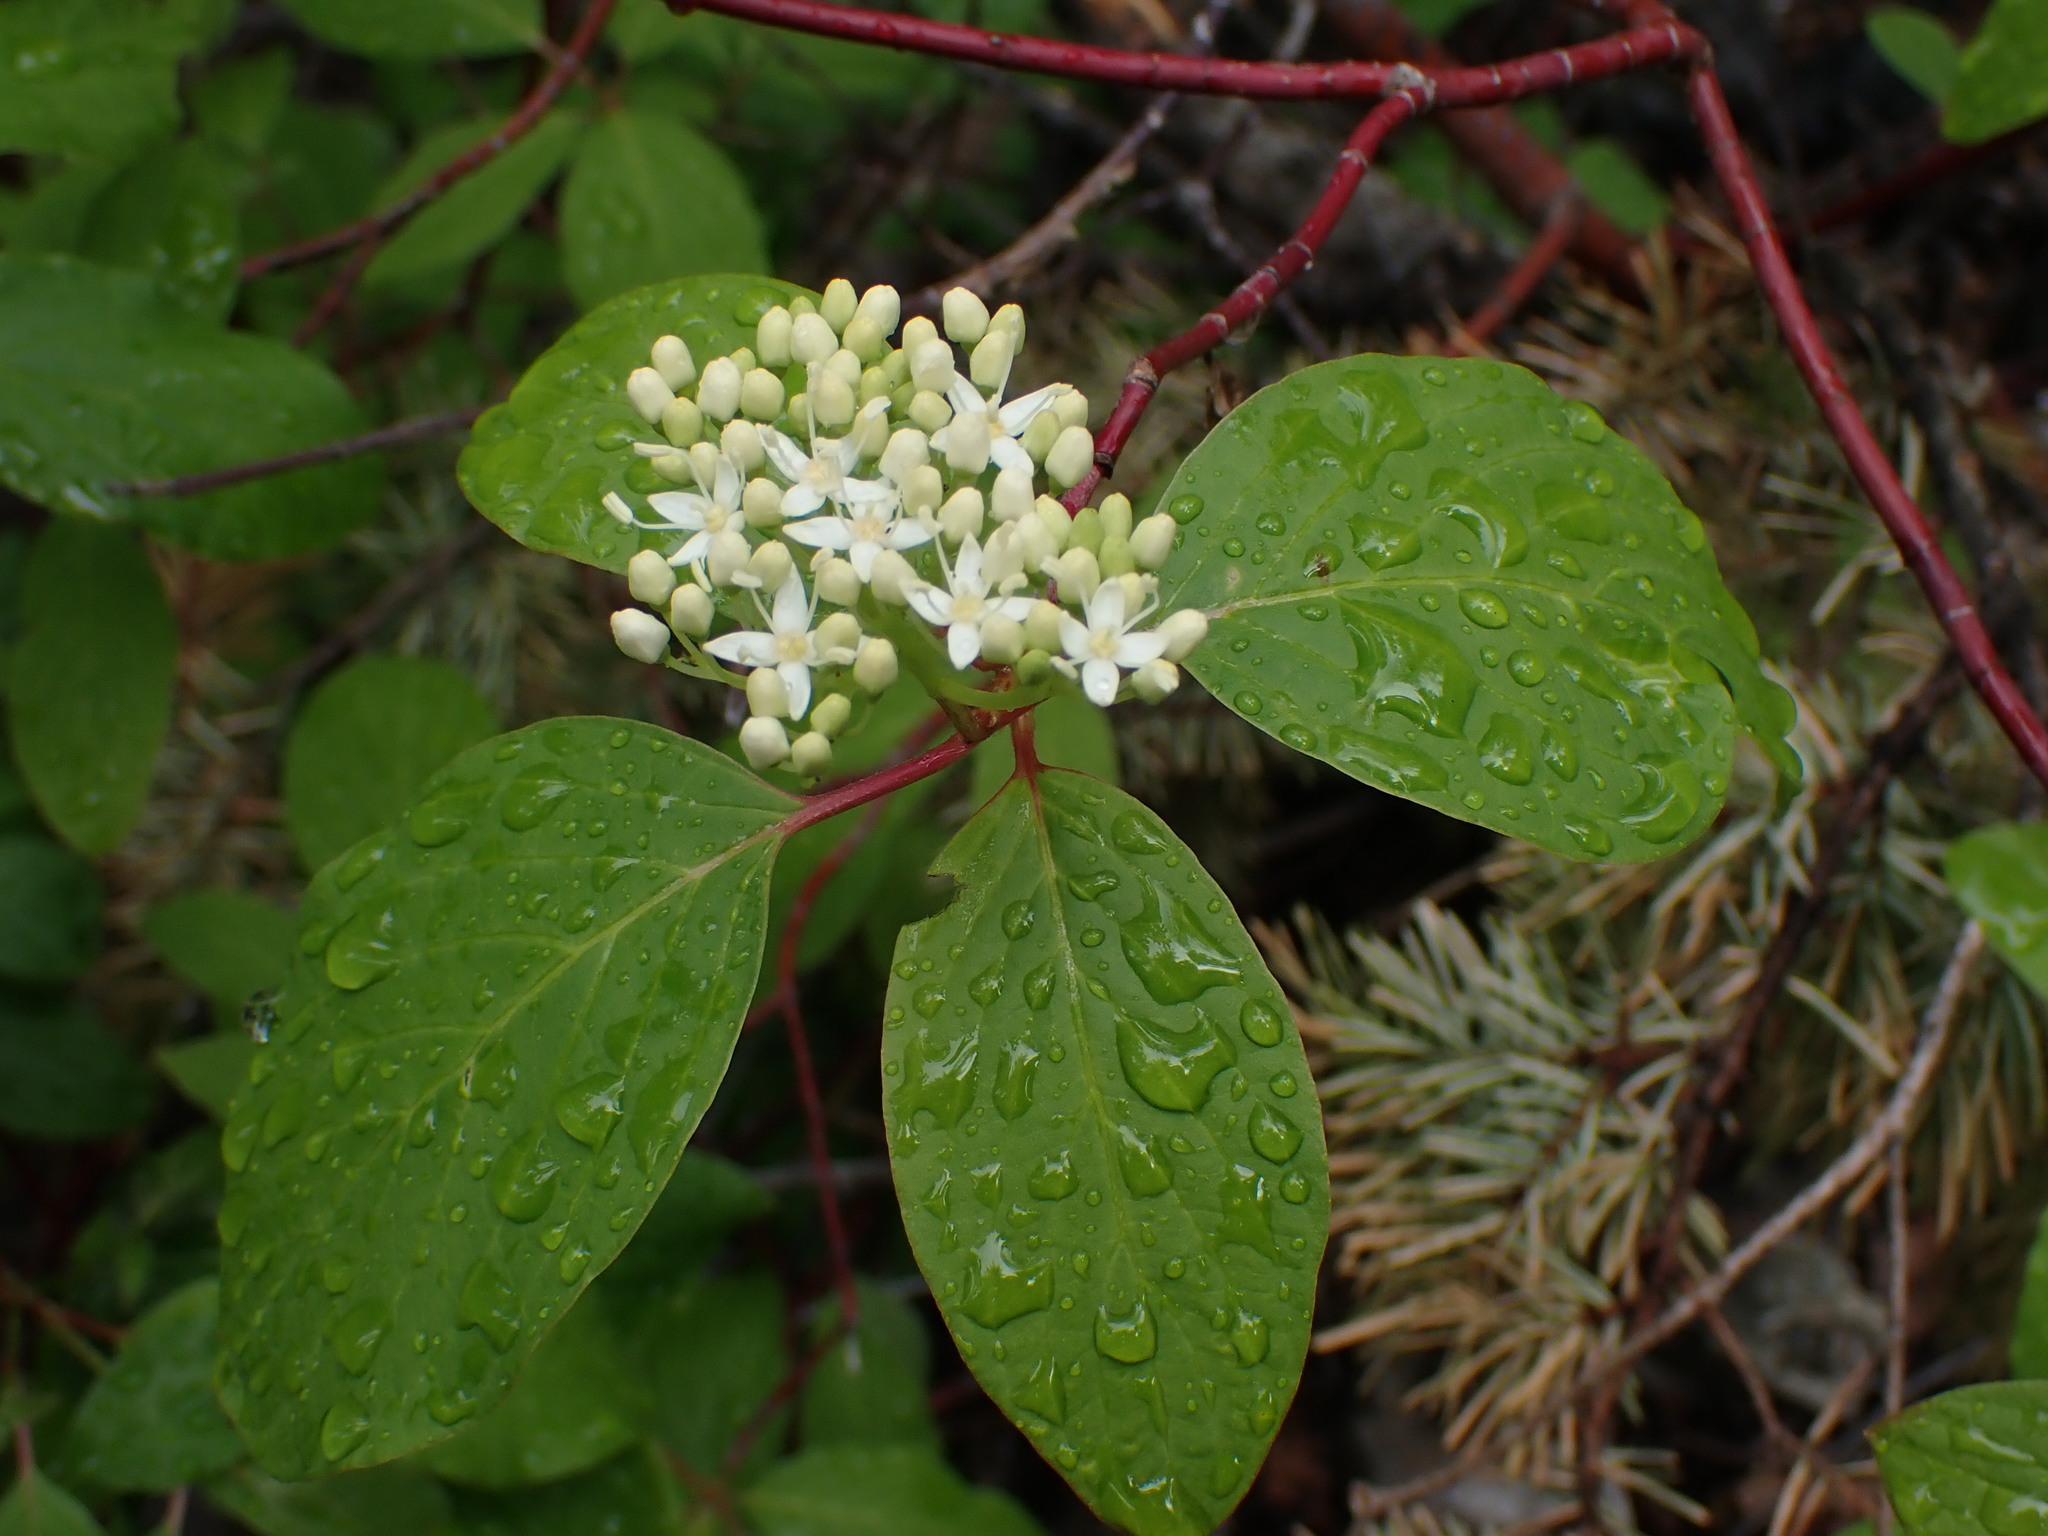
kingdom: Plantae
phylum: Tracheophyta
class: Magnoliopsida
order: Cornales
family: Cornaceae
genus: Cornus
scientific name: Cornus sericea
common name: Red-osier dogwood
